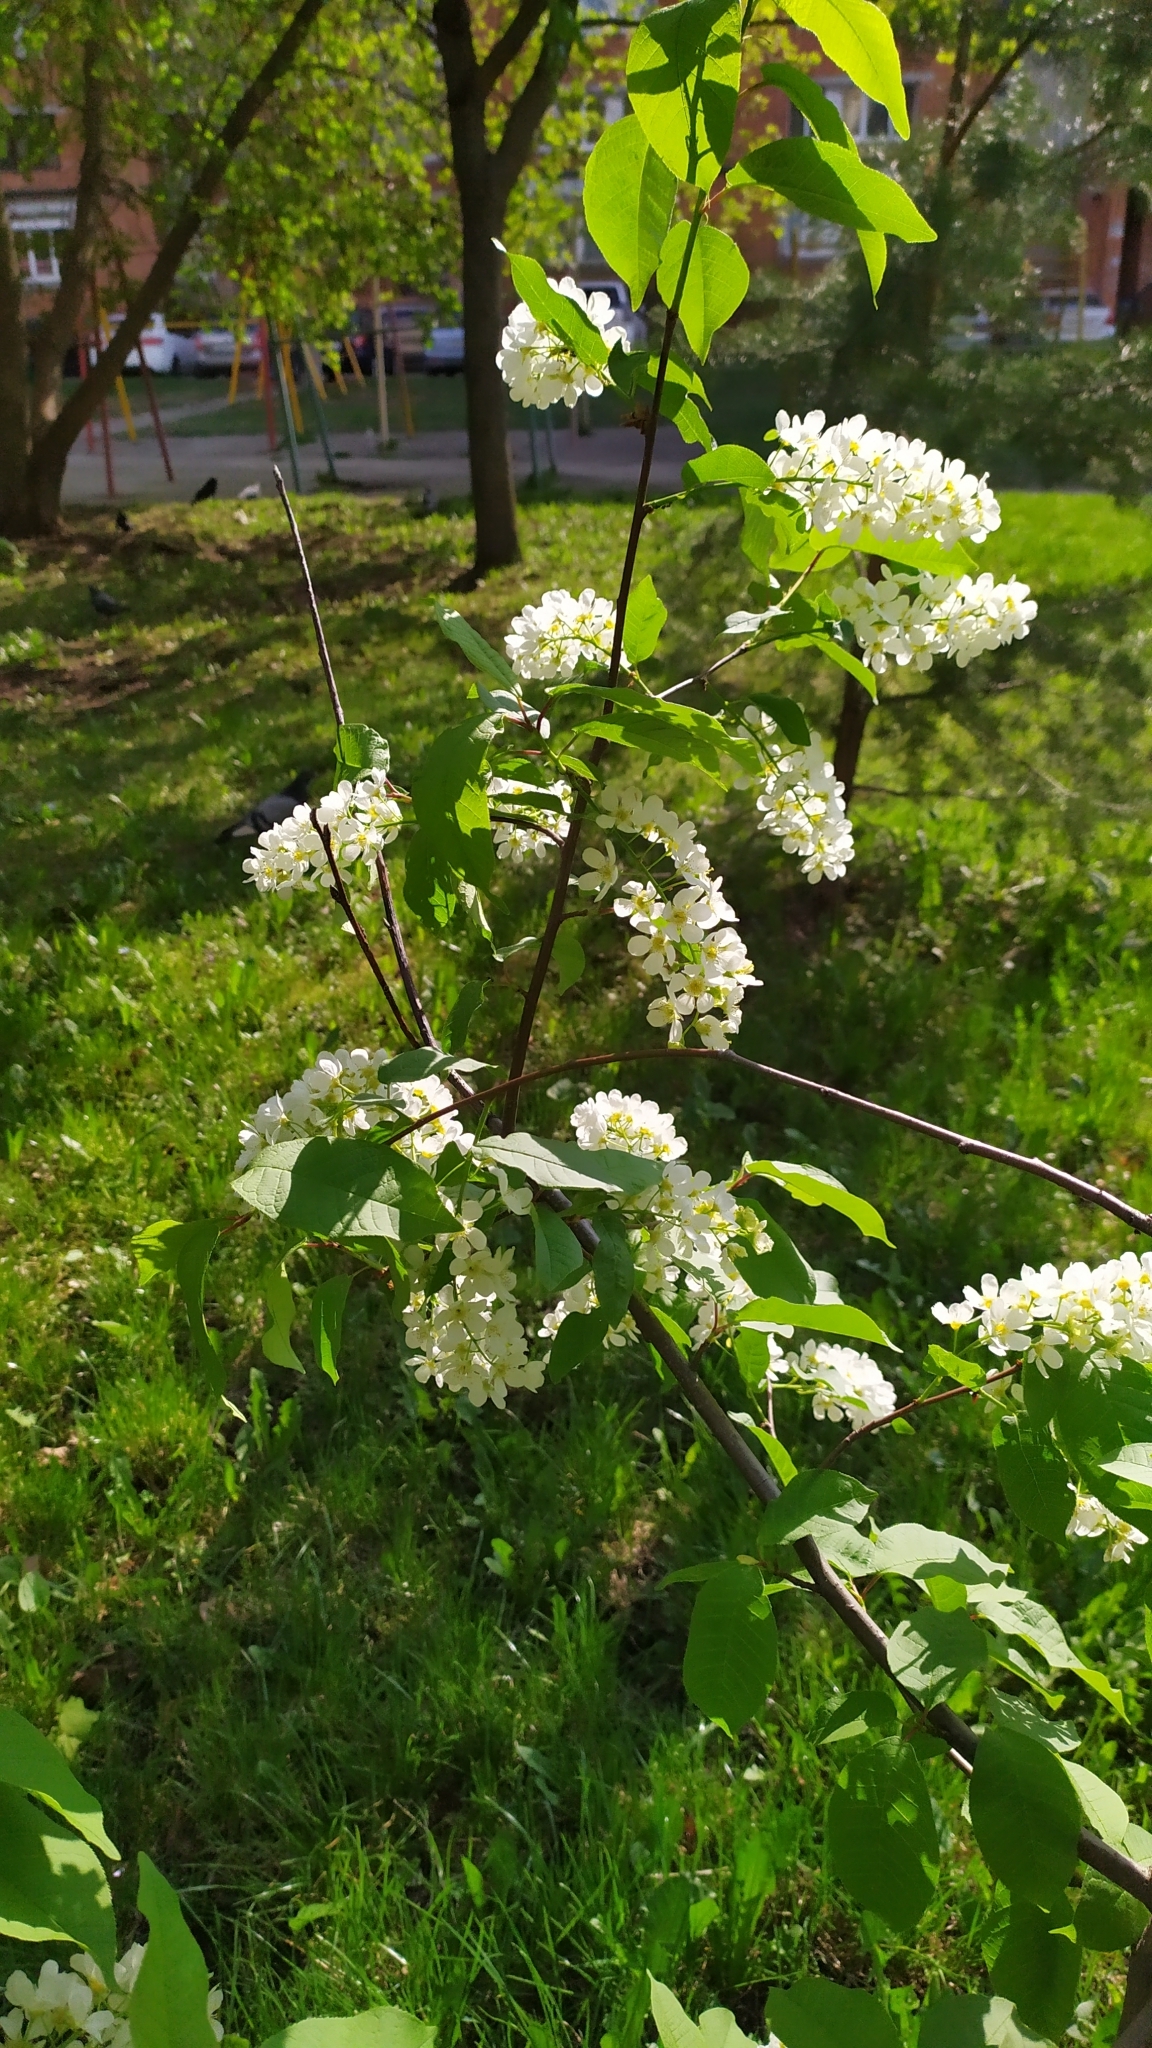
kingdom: Plantae
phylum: Tracheophyta
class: Magnoliopsida
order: Rosales
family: Rosaceae
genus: Prunus
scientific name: Prunus padus
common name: Bird cherry
